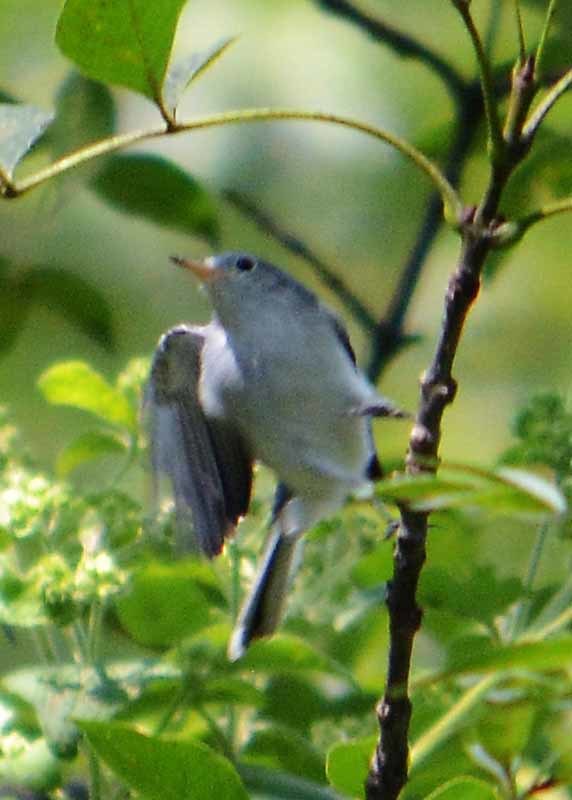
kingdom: Animalia
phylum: Chordata
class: Aves
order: Passeriformes
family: Polioptilidae
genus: Polioptila
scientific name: Polioptila caerulea
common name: Blue-gray gnatcatcher
